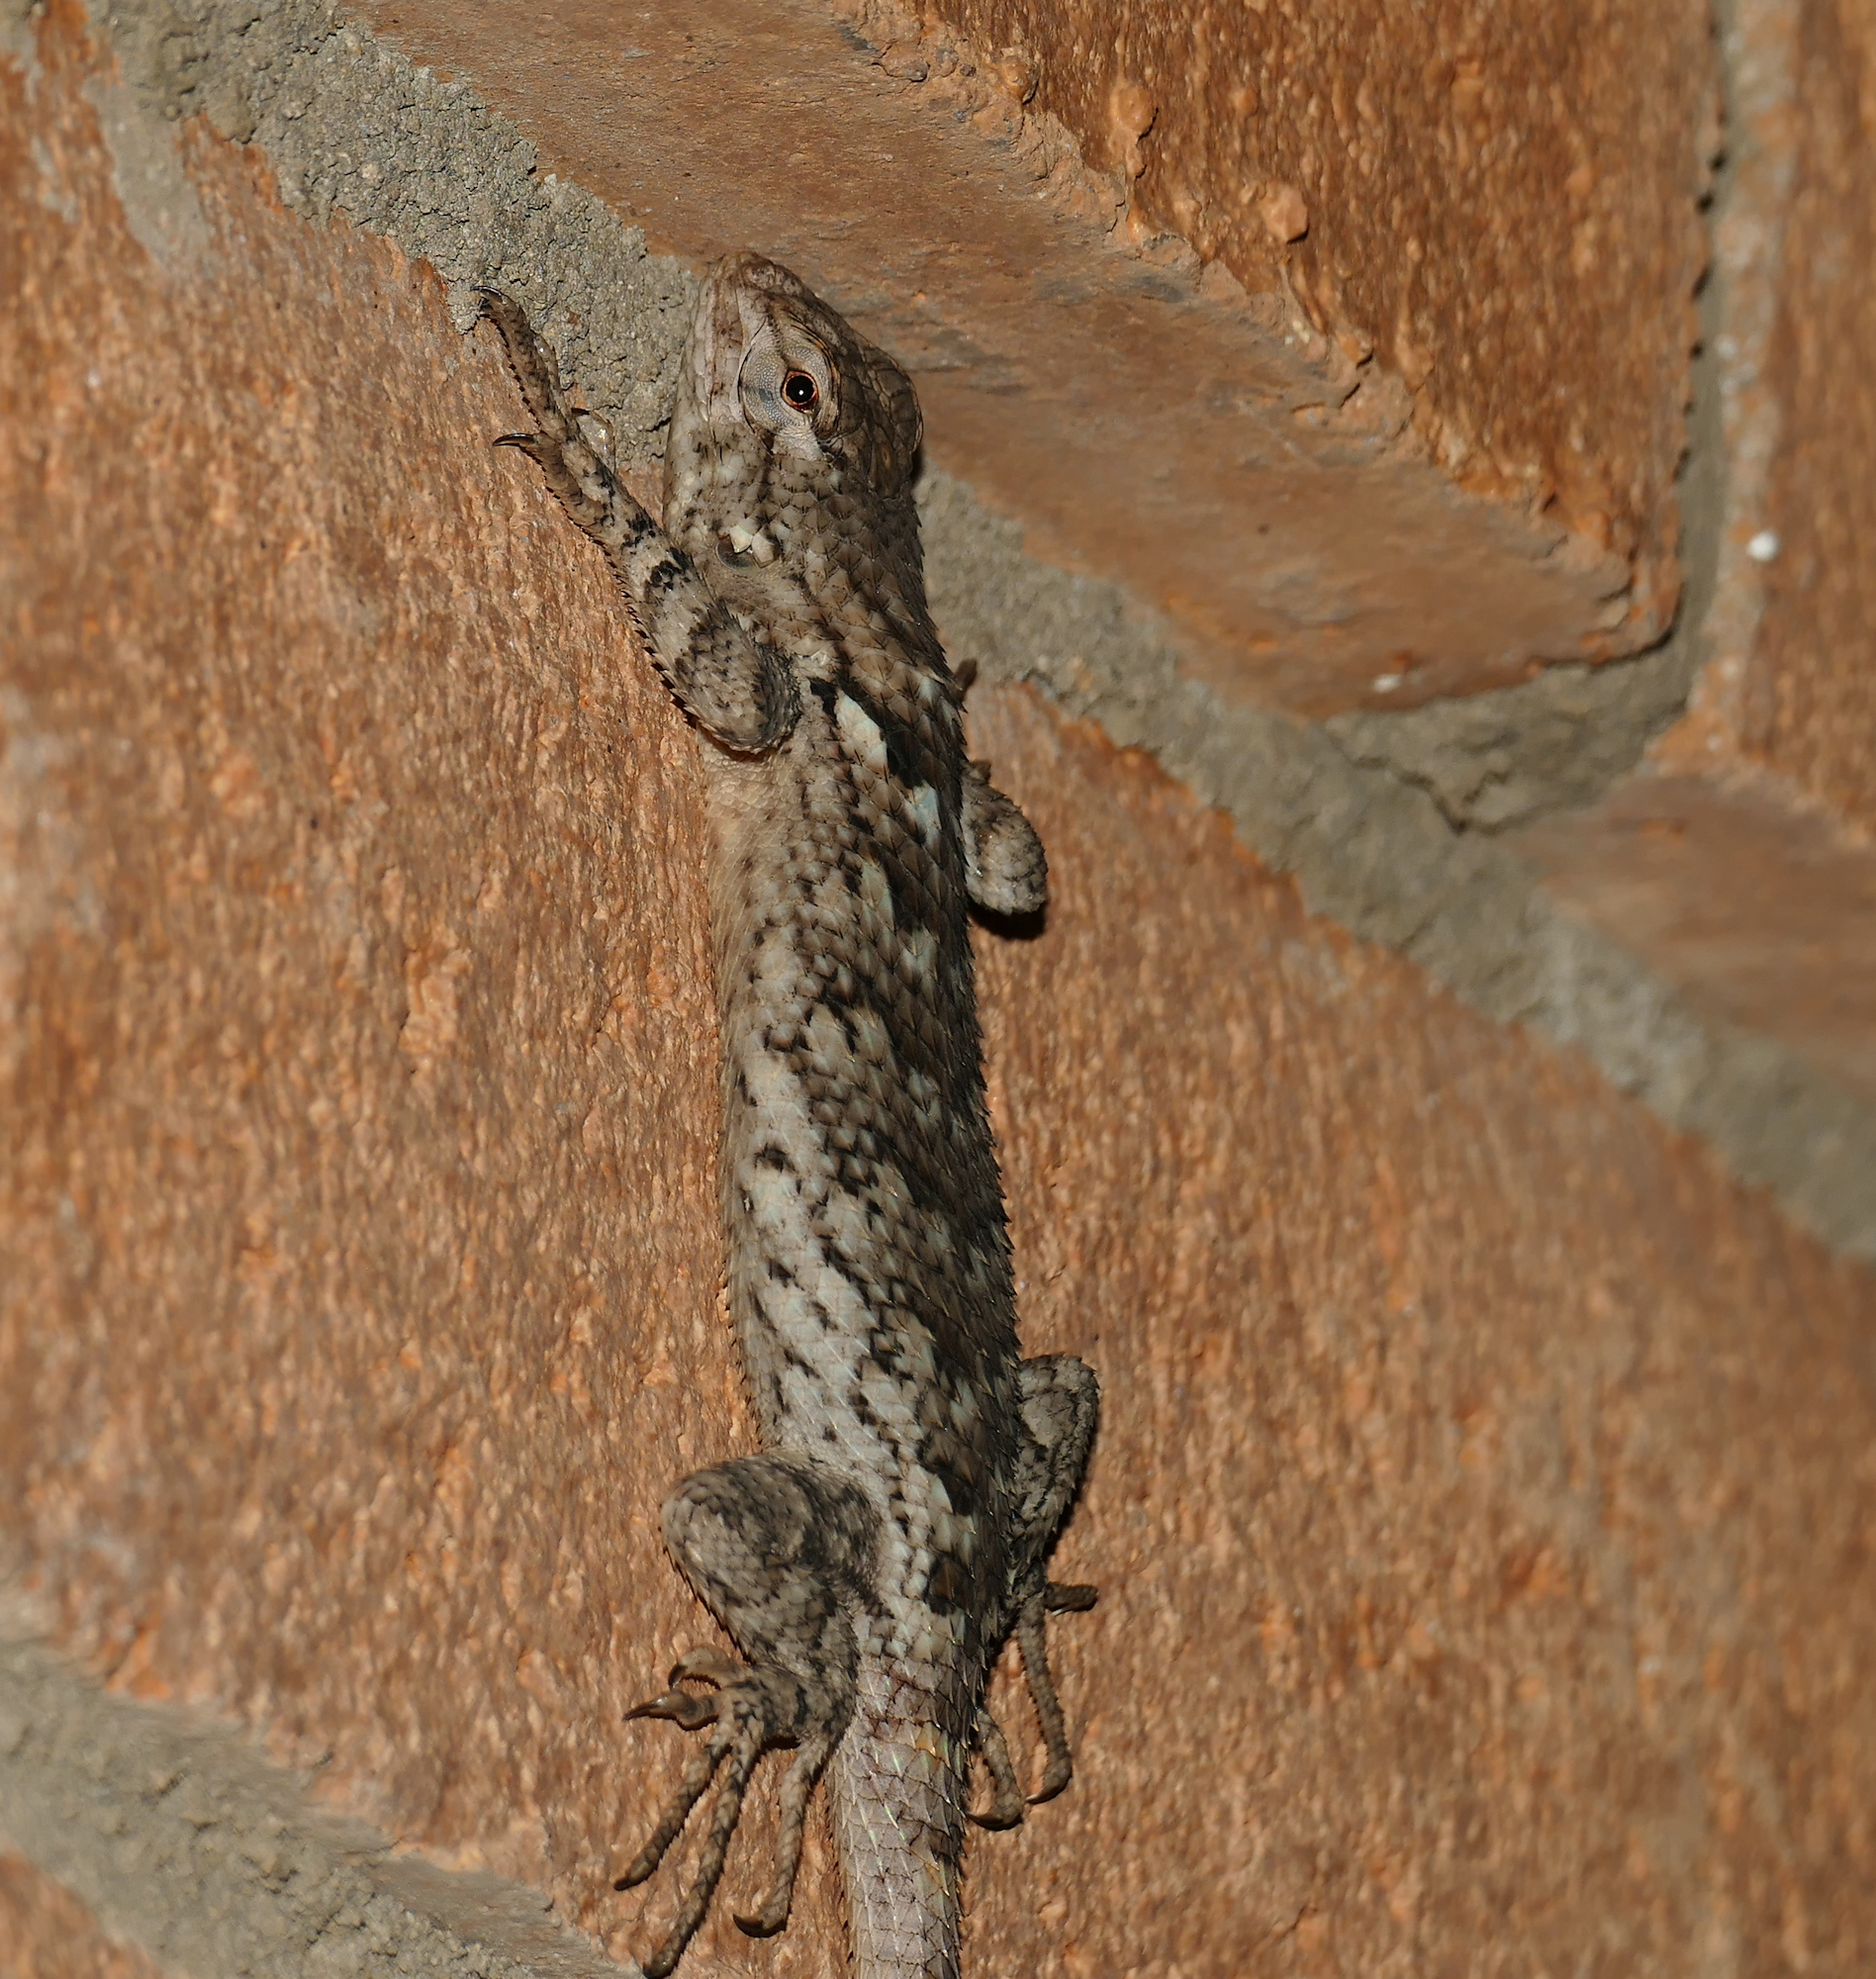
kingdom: Animalia
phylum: Chordata
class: Squamata
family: Phrynosomatidae
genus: Sceloporus
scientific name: Sceloporus clarkii
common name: Clark's spiny lizard
